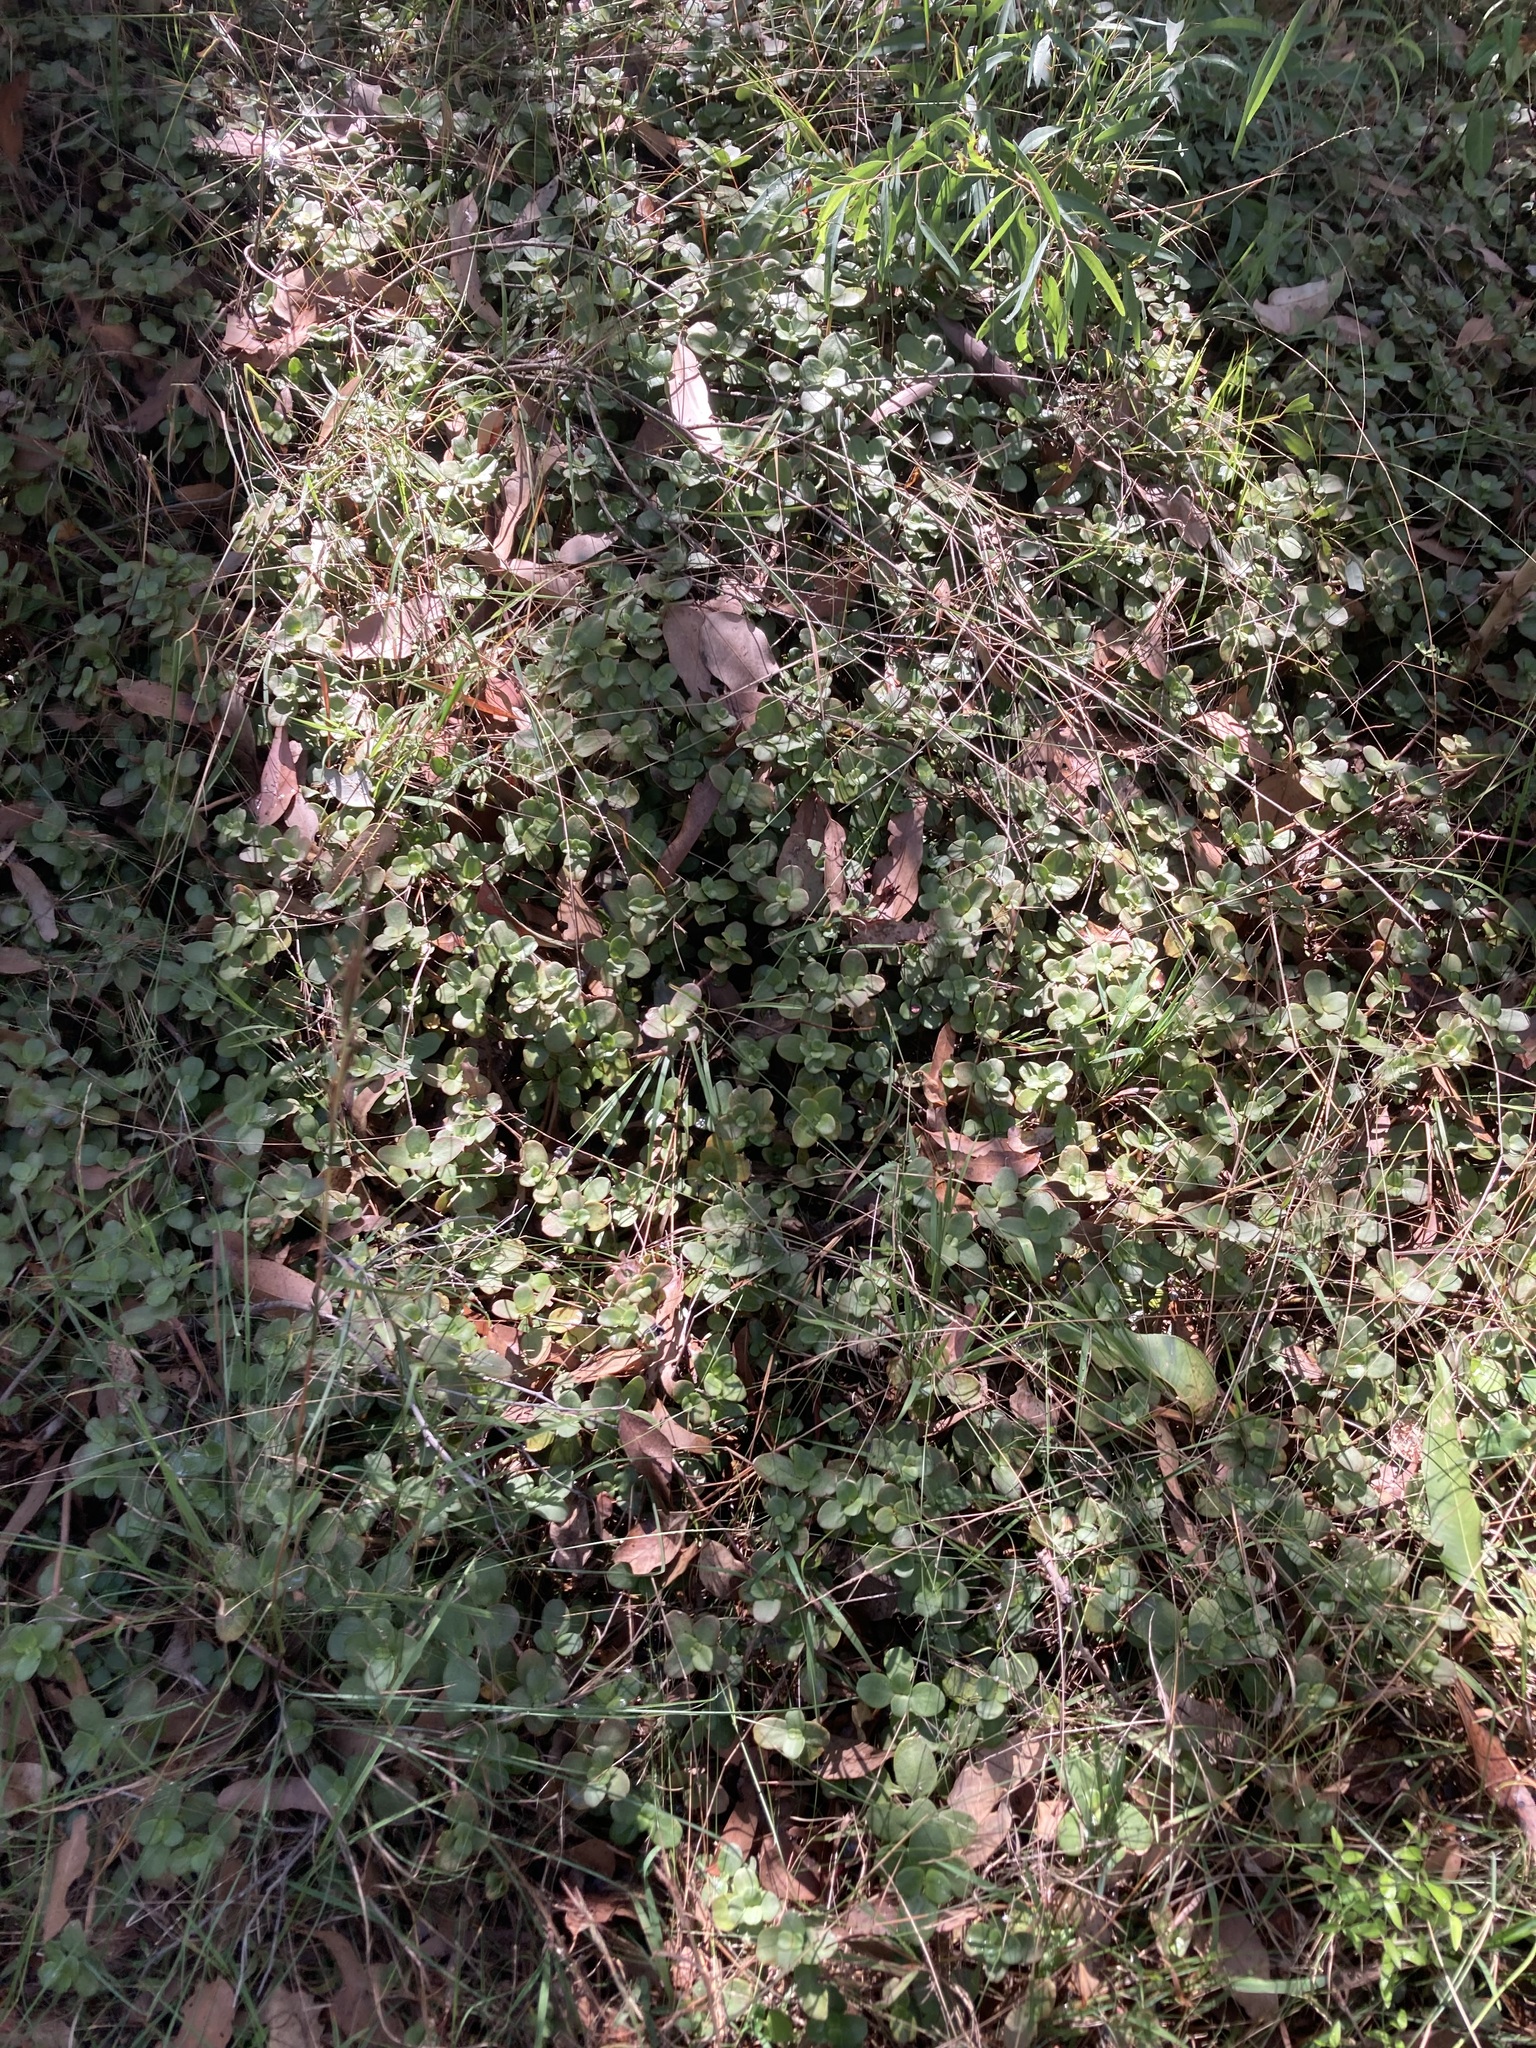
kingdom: Plantae
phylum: Tracheophyta
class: Magnoliopsida
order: Saxifragales
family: Crassulaceae
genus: Crassula
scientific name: Crassula multicava
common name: Cape province pygmyweed
